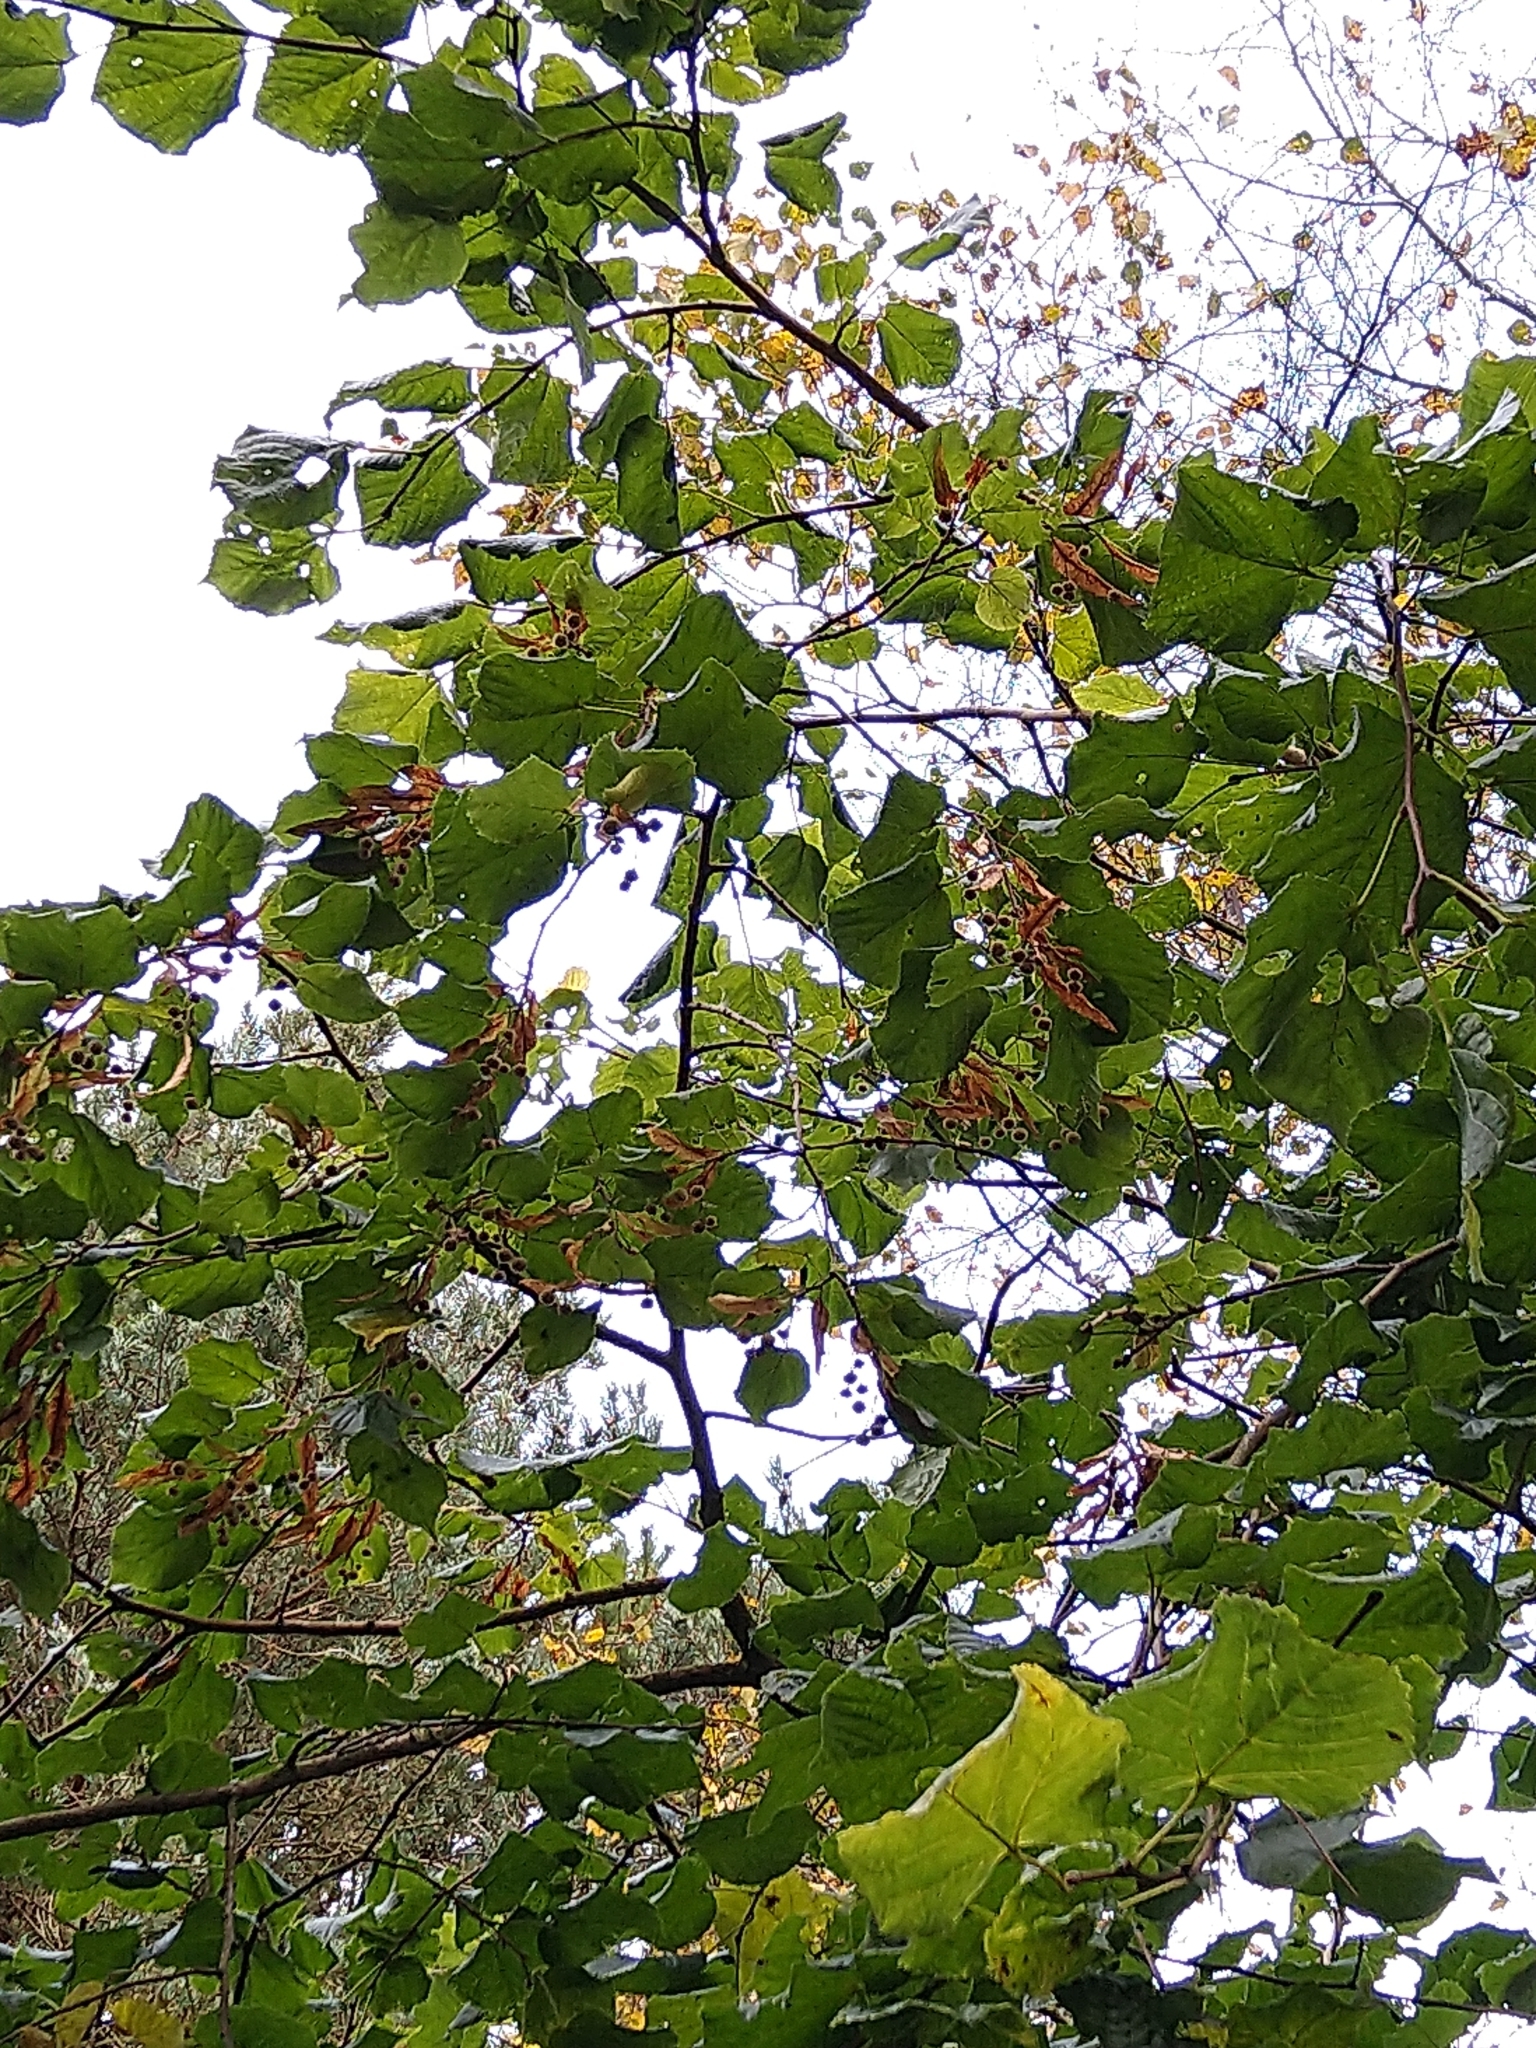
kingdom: Plantae
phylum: Tracheophyta
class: Magnoliopsida
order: Malvales
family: Malvaceae
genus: Tilia
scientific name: Tilia cordata
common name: Small-leaved lime
